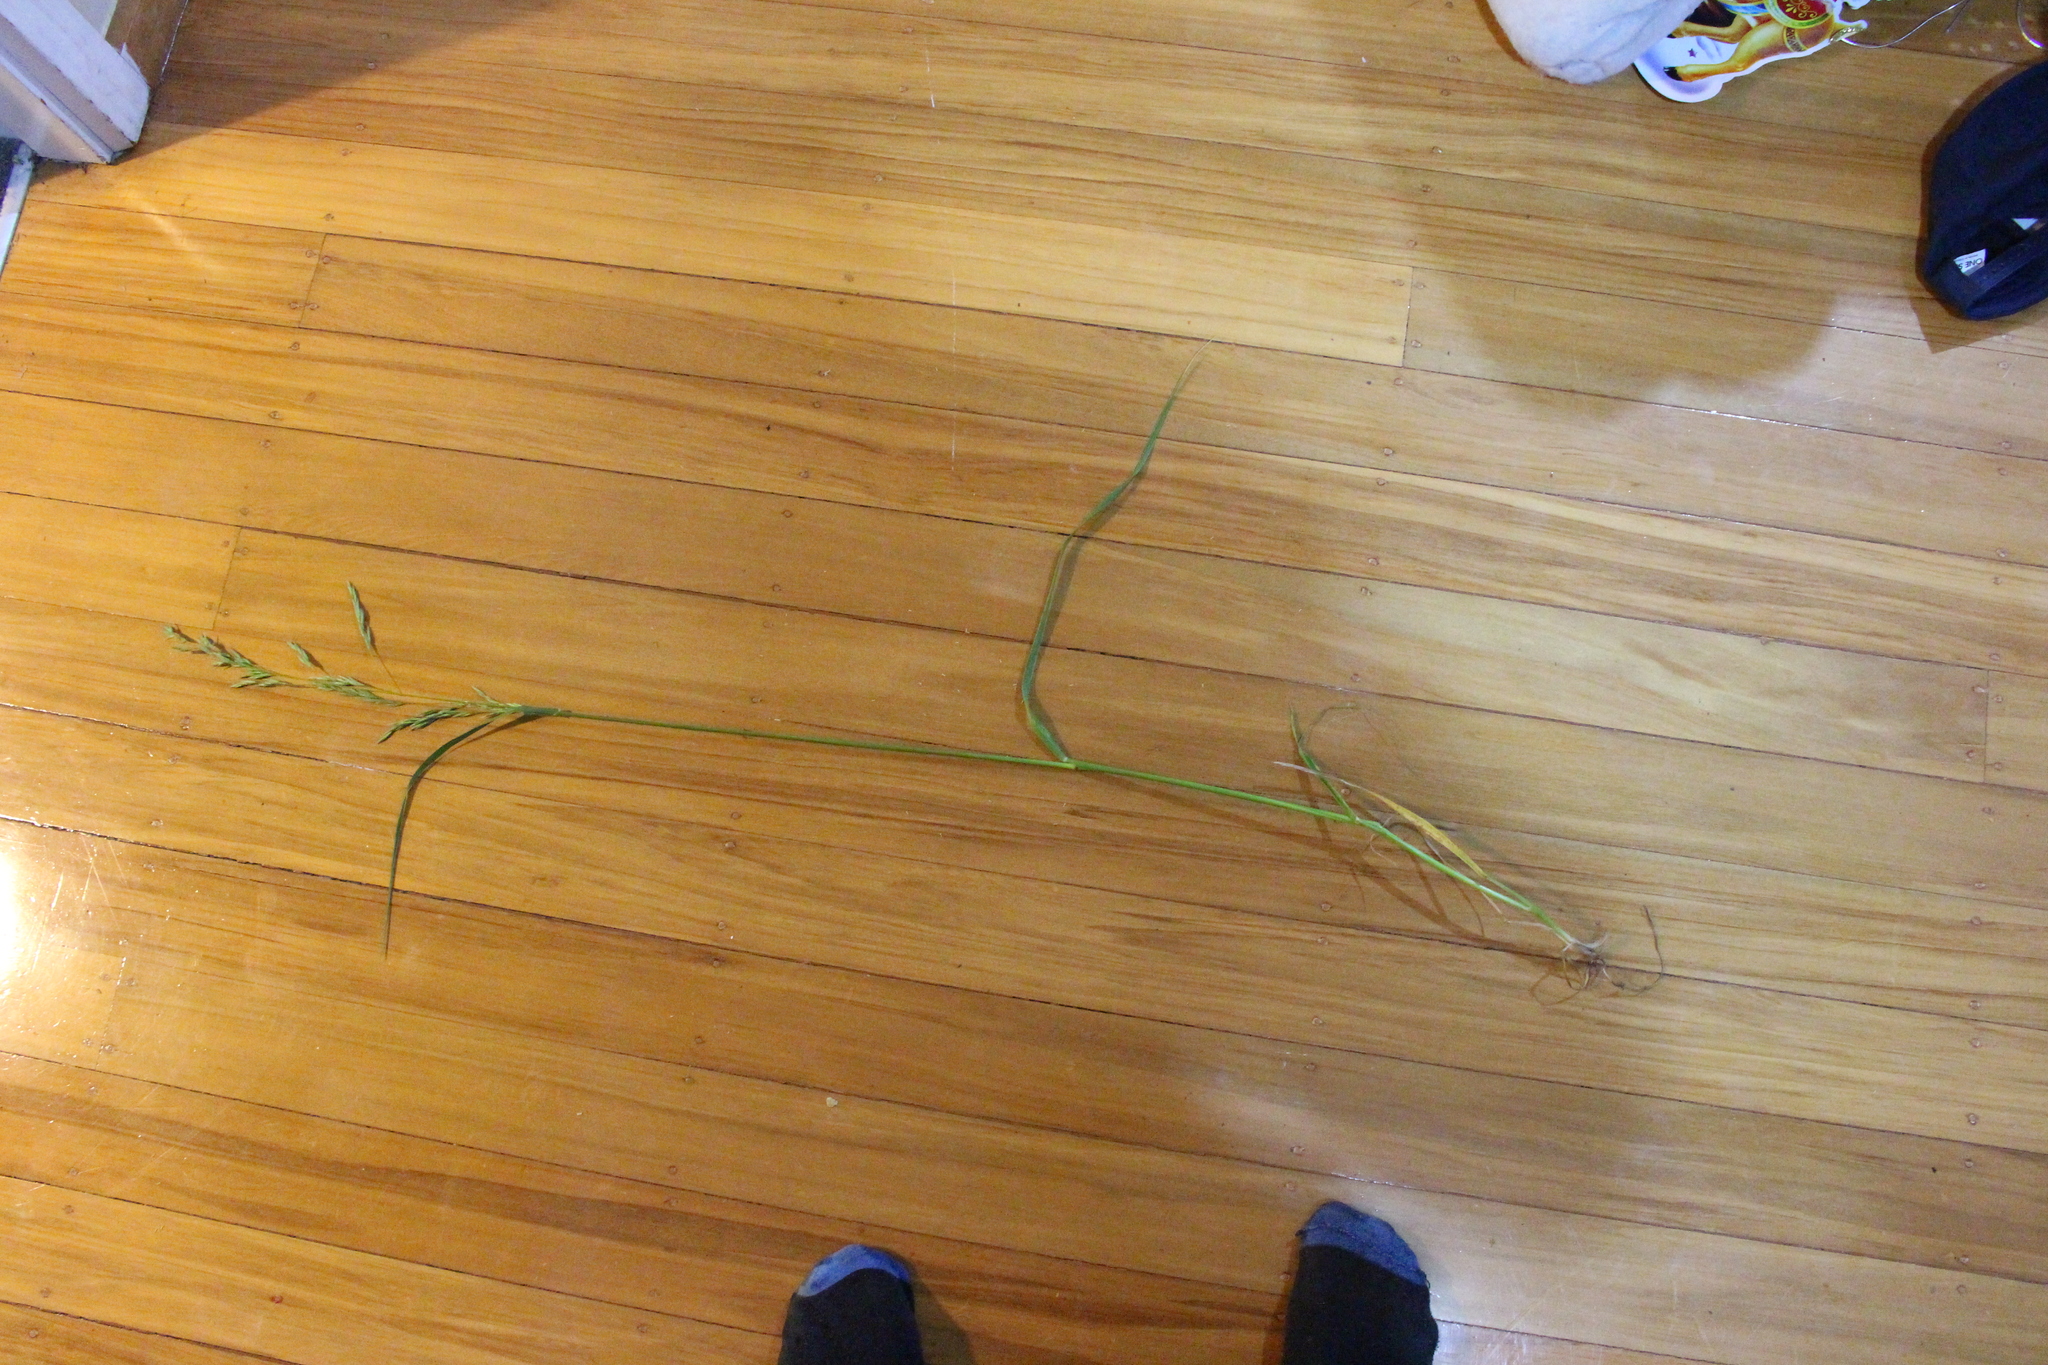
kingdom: Plantae
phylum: Tracheophyta
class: Liliopsida
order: Poales
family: Poaceae
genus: Lolium
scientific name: Lolium arundinaceum
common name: Reed fescue
